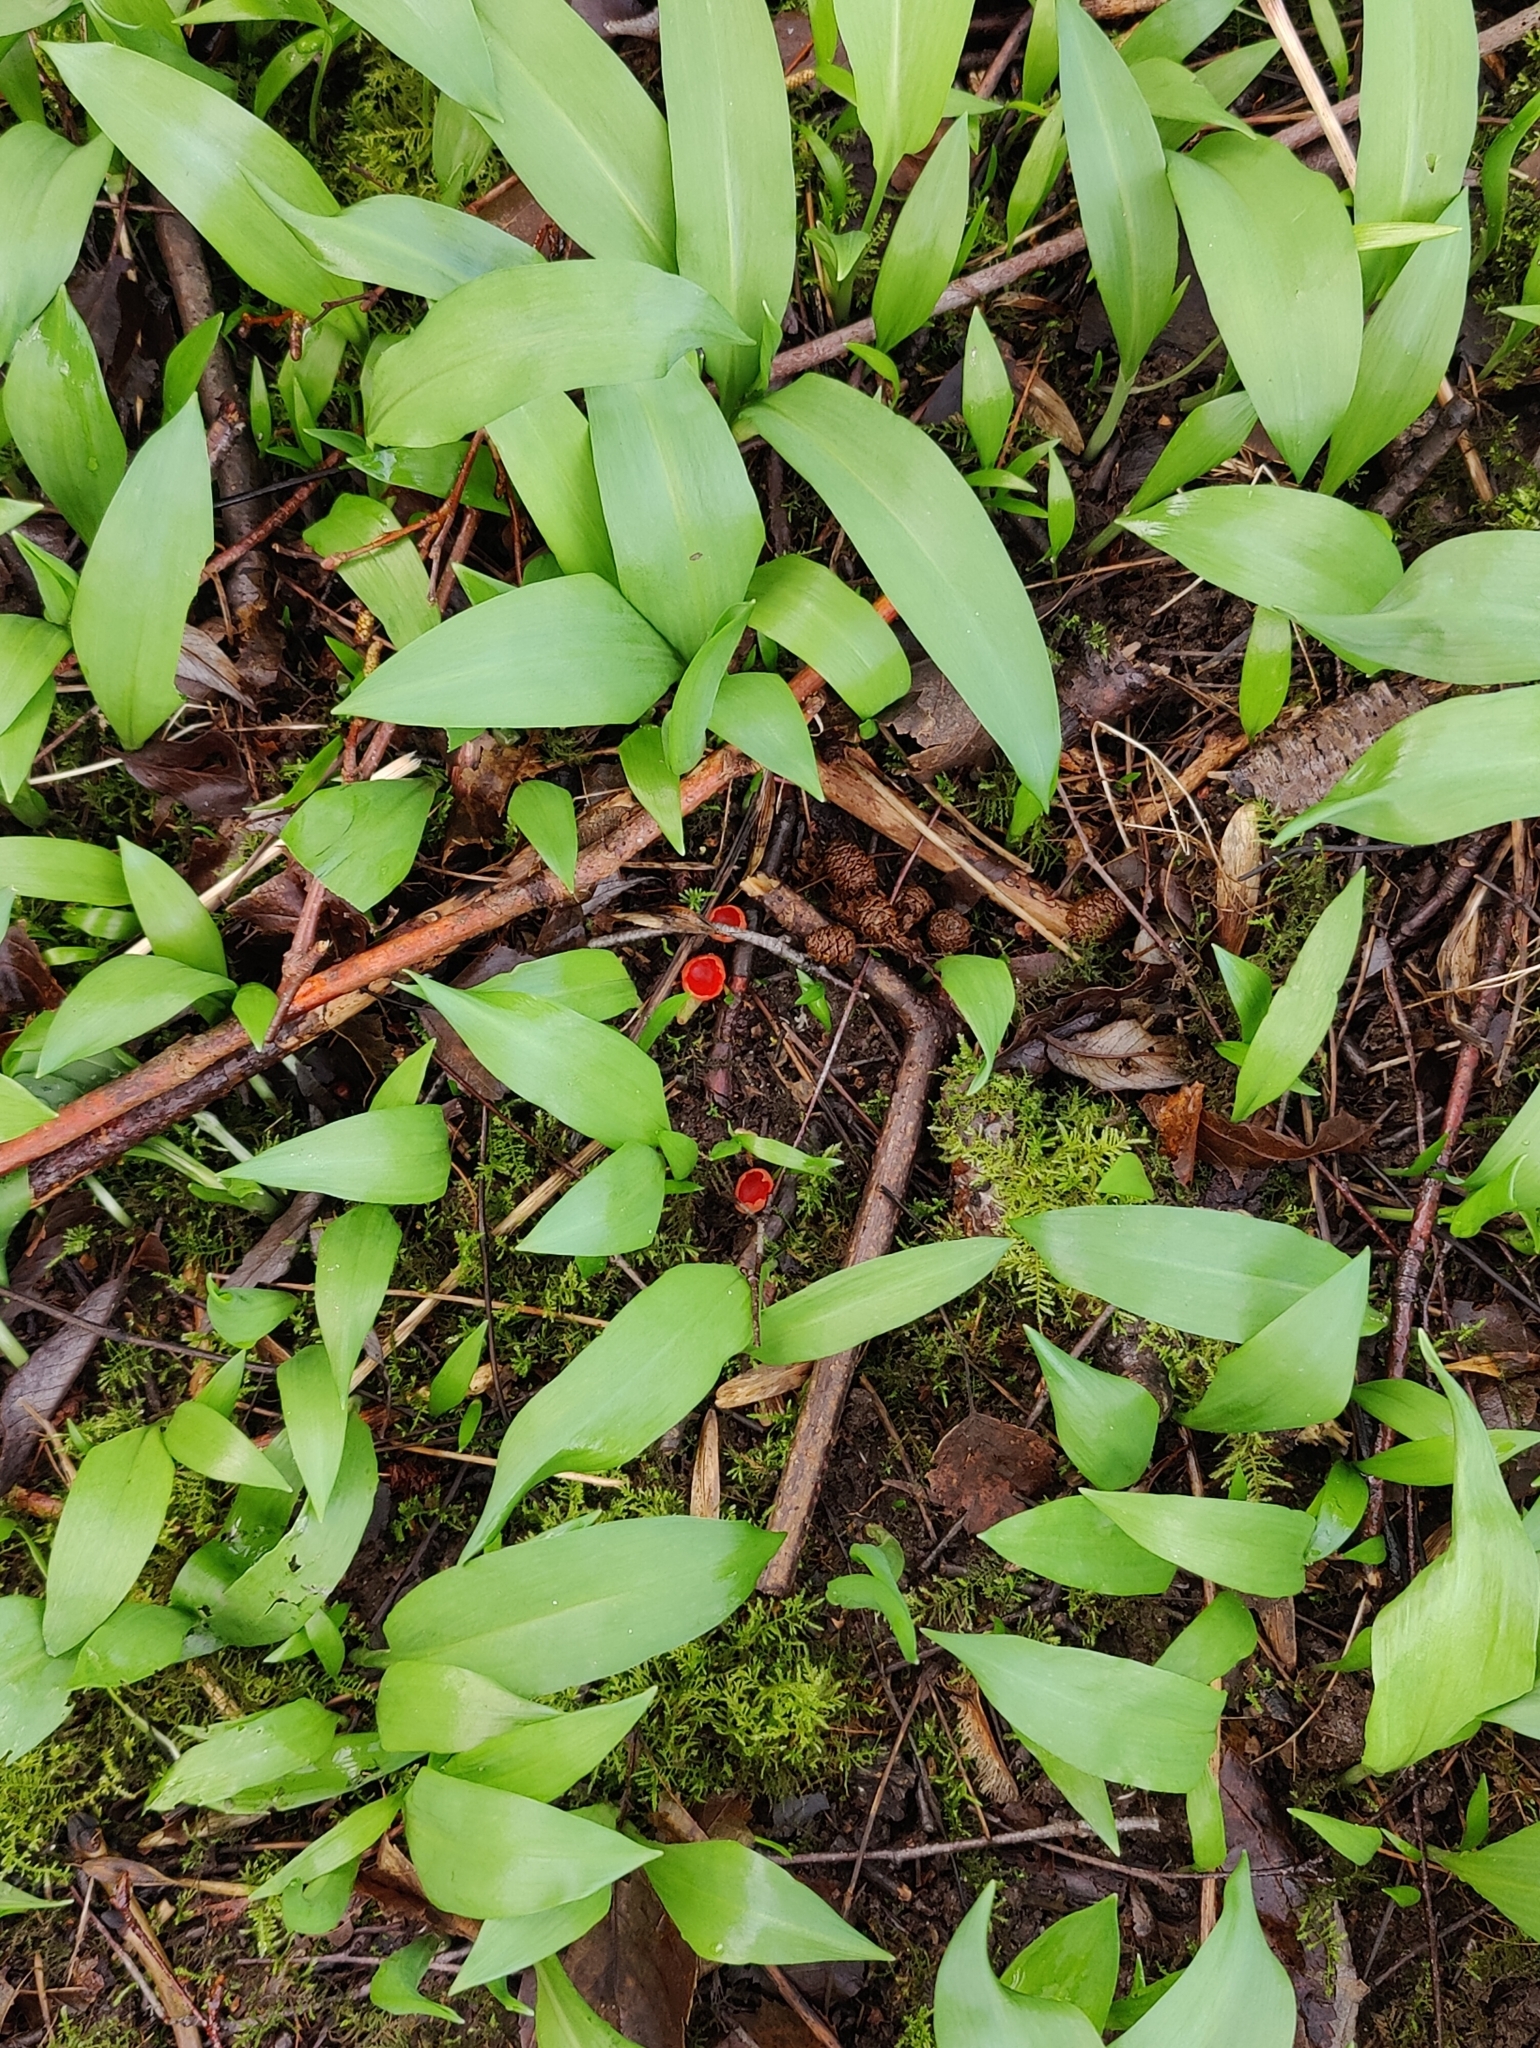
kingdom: Plantae
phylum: Tracheophyta
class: Liliopsida
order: Asparagales
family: Amaryllidaceae
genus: Allium
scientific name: Allium ursinum
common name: Ramsons
